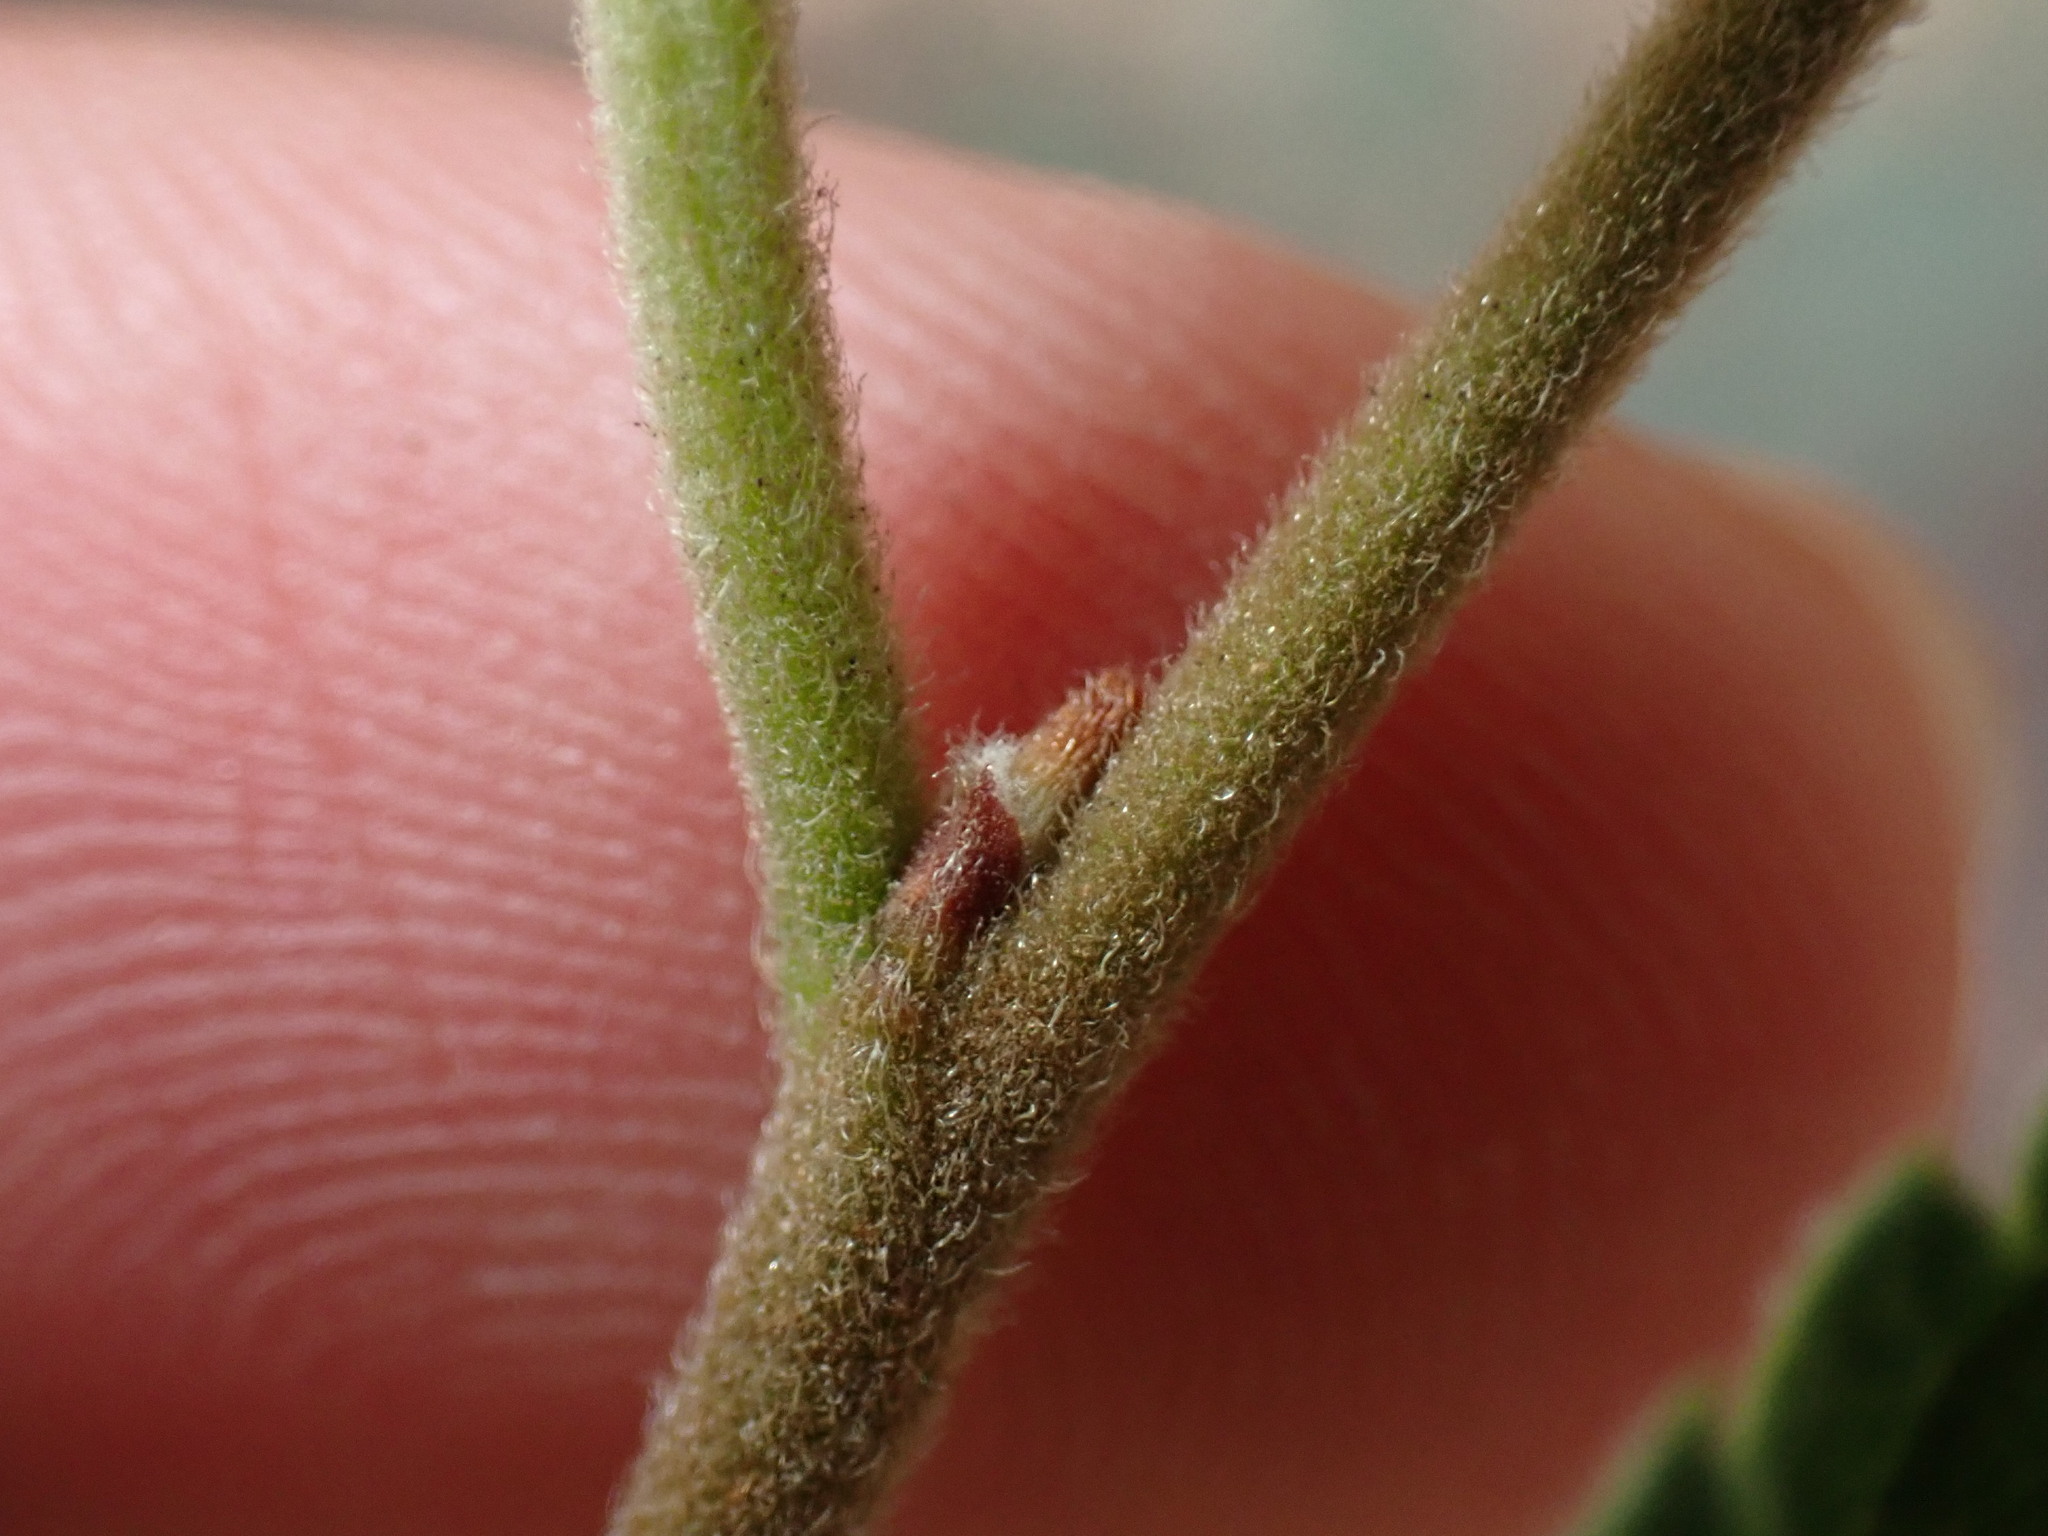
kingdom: Plantae
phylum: Tracheophyta
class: Magnoliopsida
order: Rosales
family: Cannabaceae
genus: Celtis
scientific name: Celtis australis
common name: European hackberry
